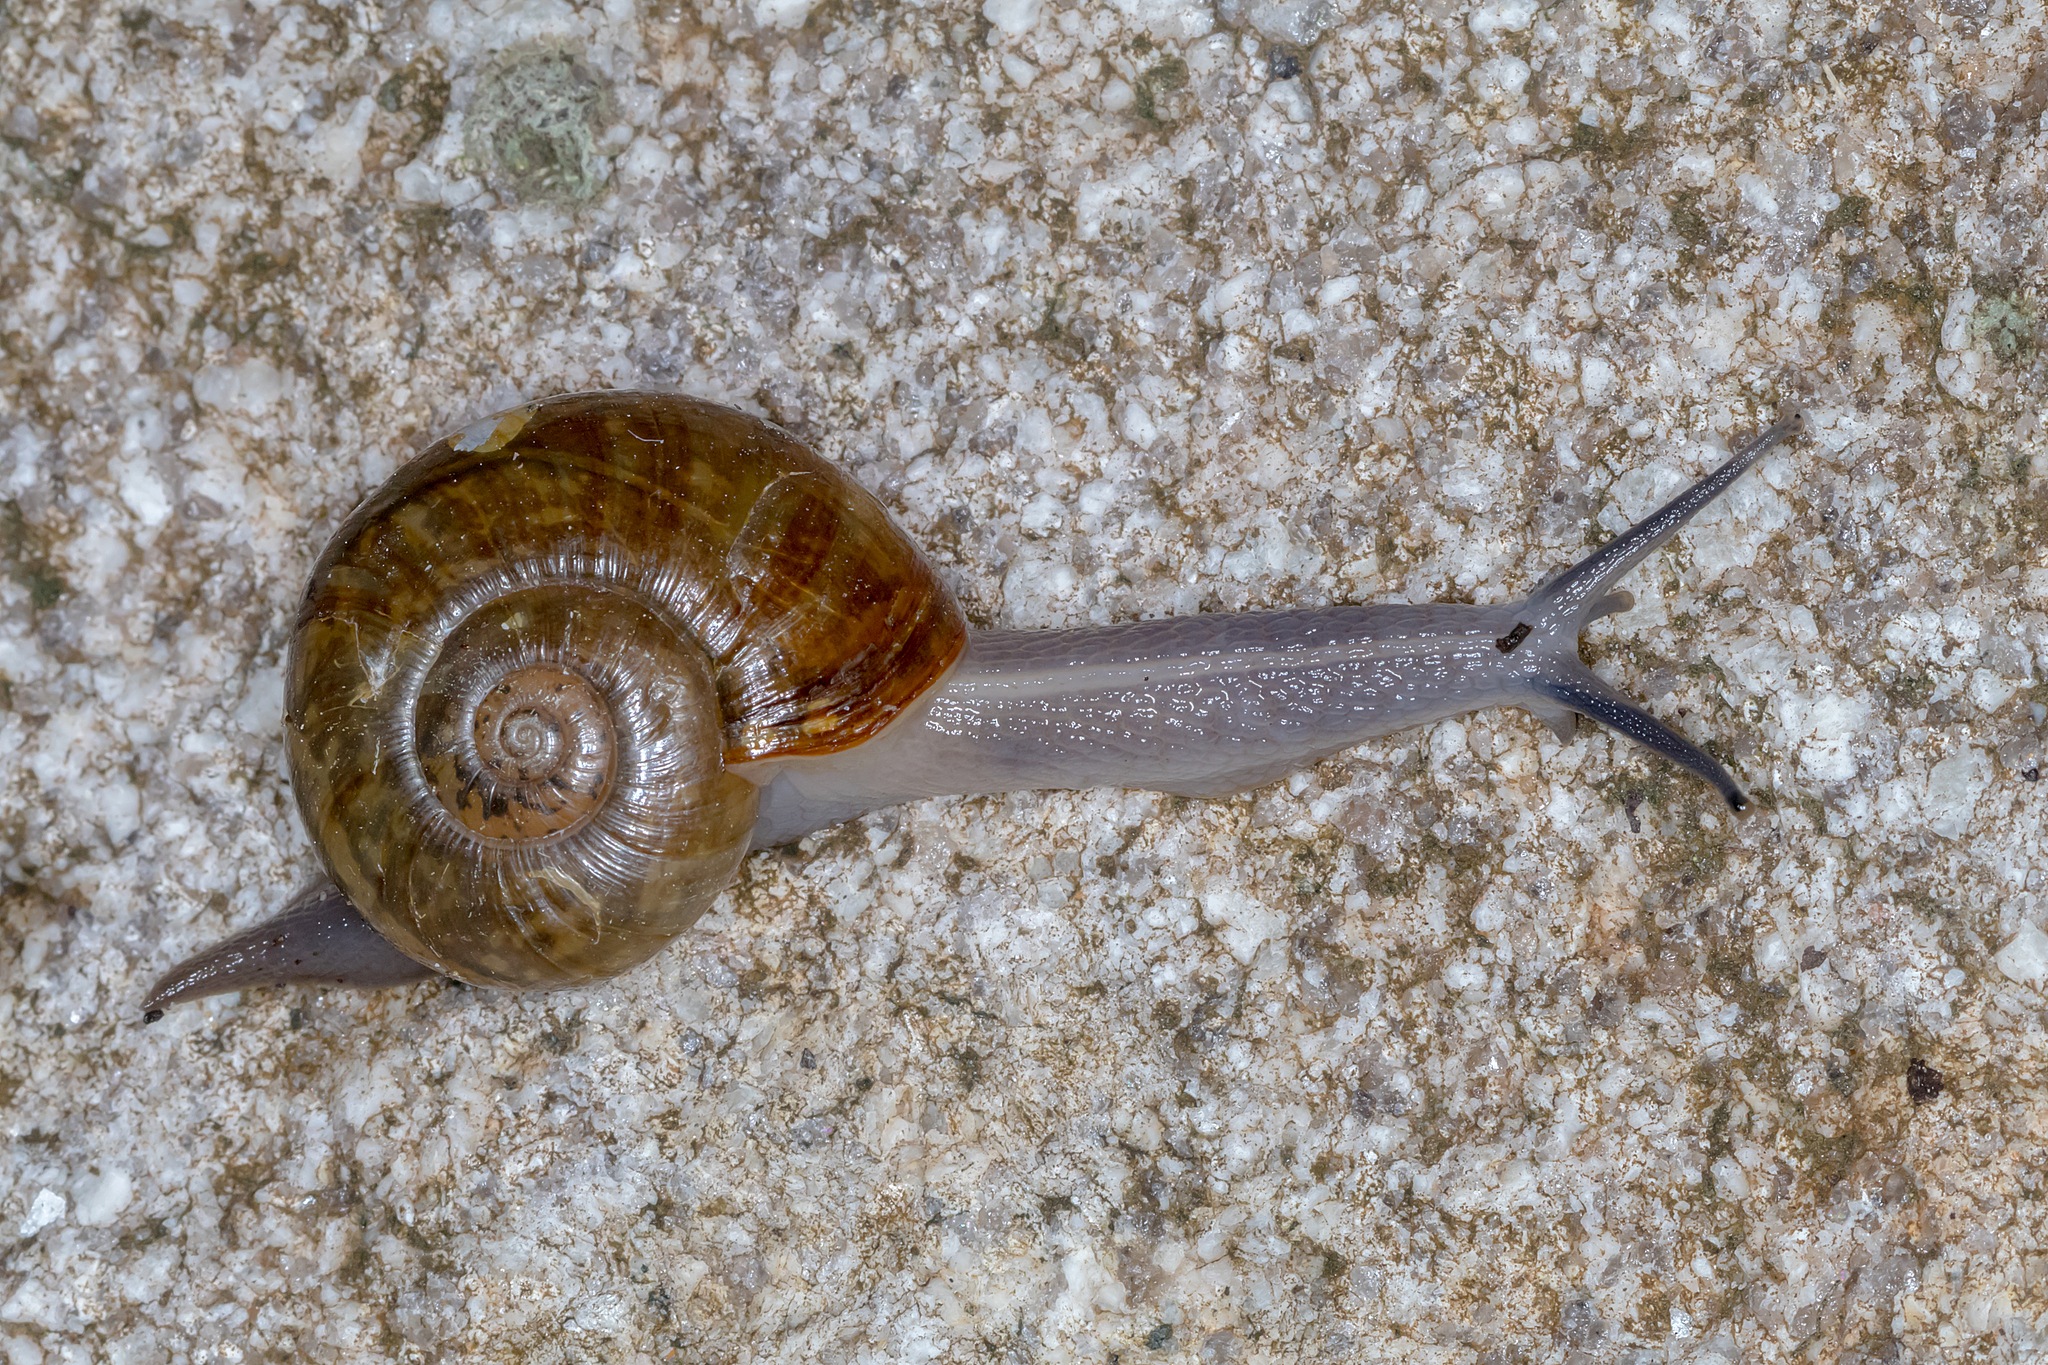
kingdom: Animalia
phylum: Mollusca
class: Gastropoda
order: Stylommatophora
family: Rhytididae
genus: Murphitella
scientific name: Murphitella franklandiensis
